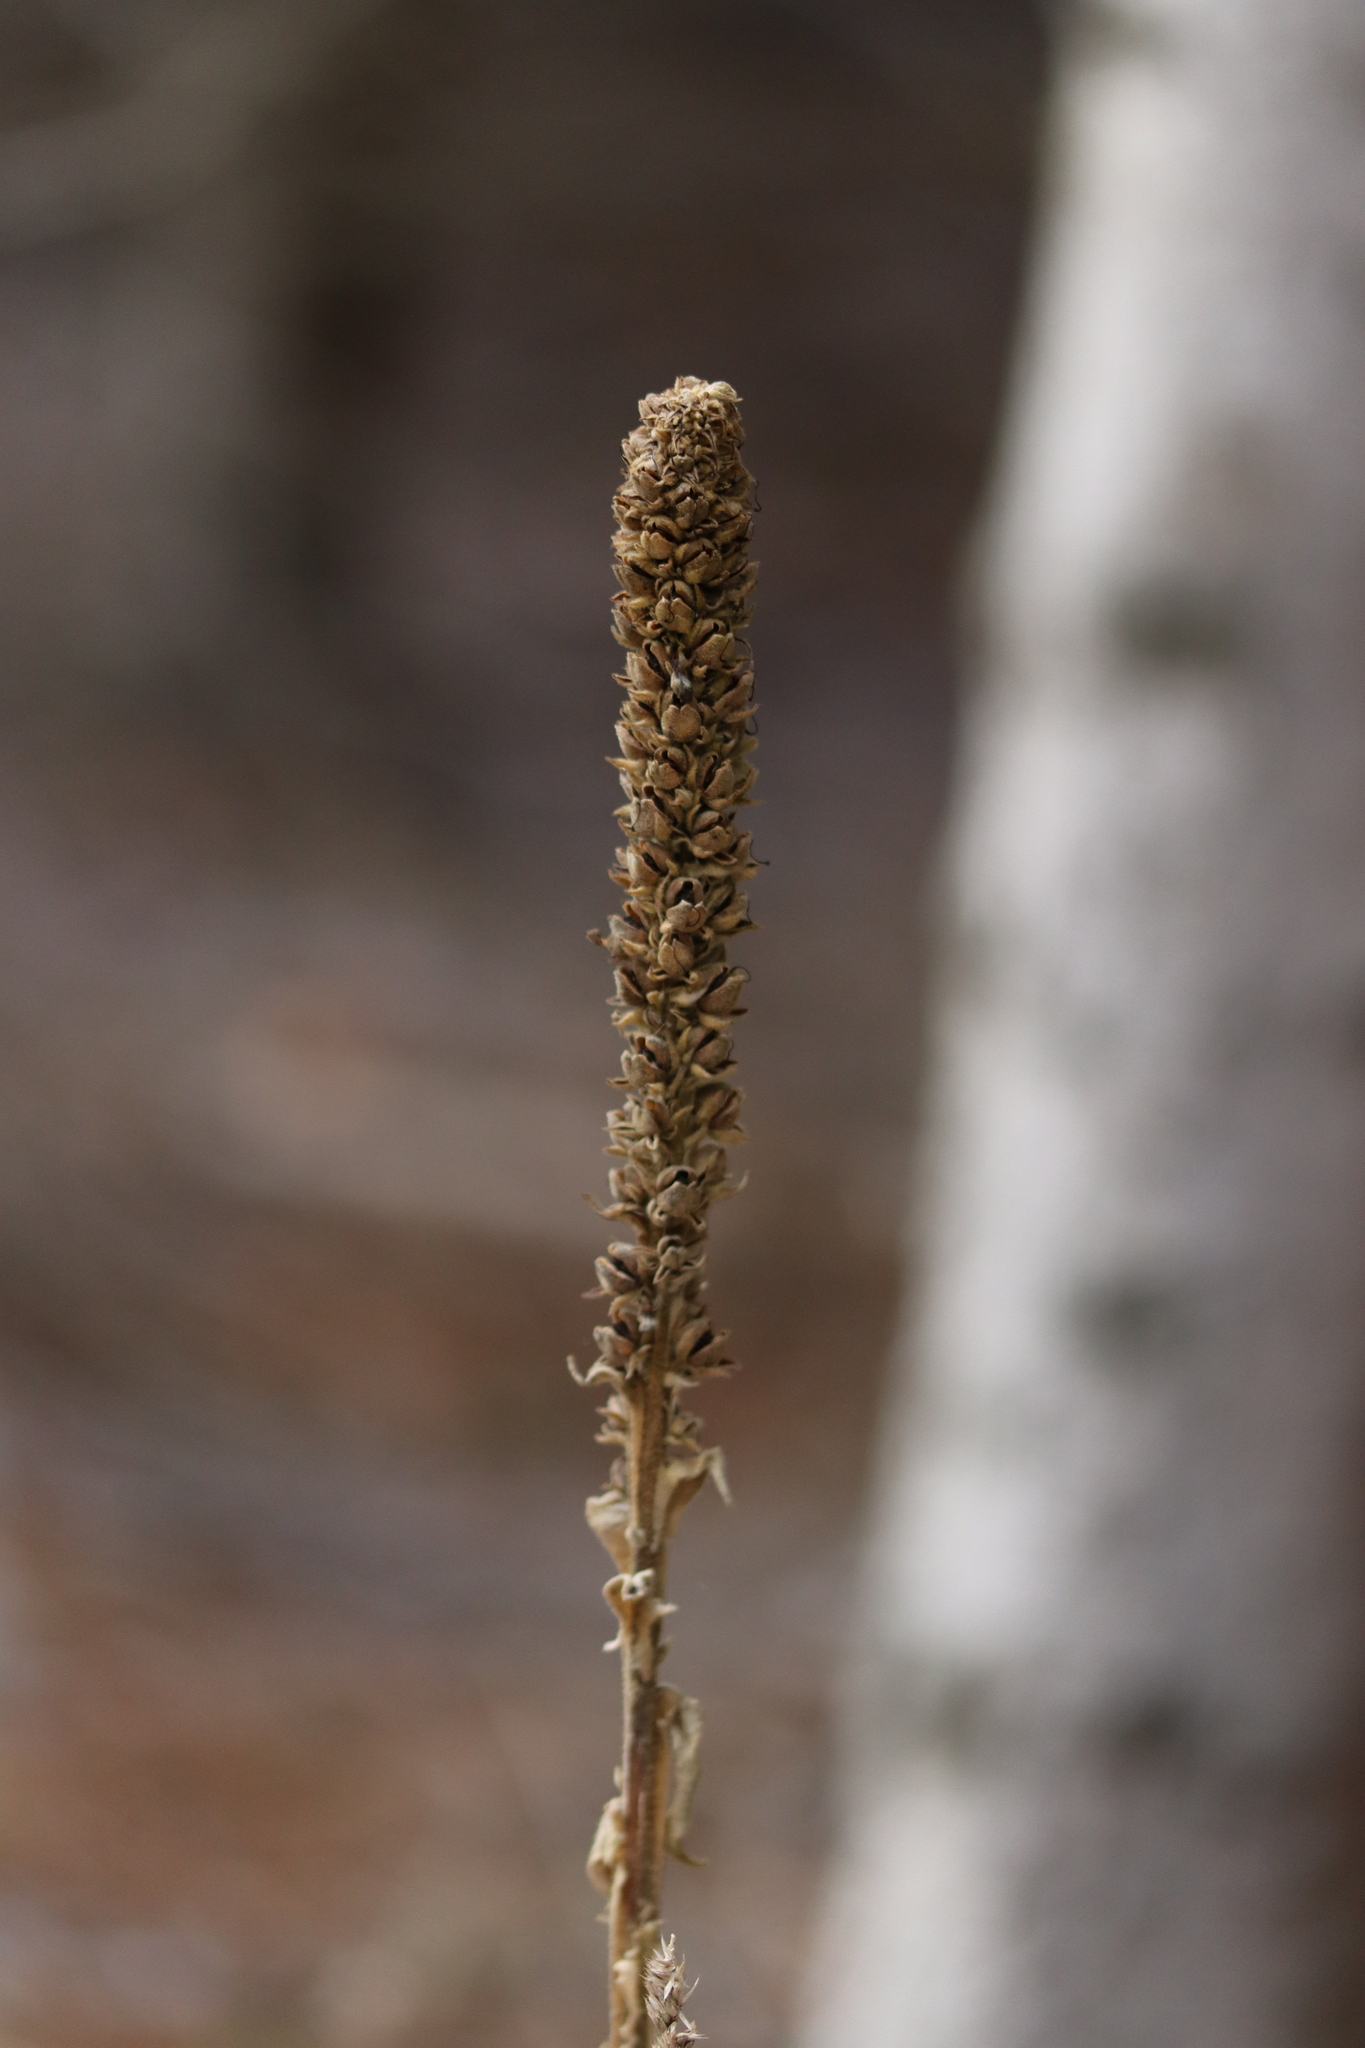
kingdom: Plantae
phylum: Tracheophyta
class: Magnoliopsida
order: Lamiales
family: Scrophulariaceae
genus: Verbascum
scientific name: Verbascum thapsus
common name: Common mullein
